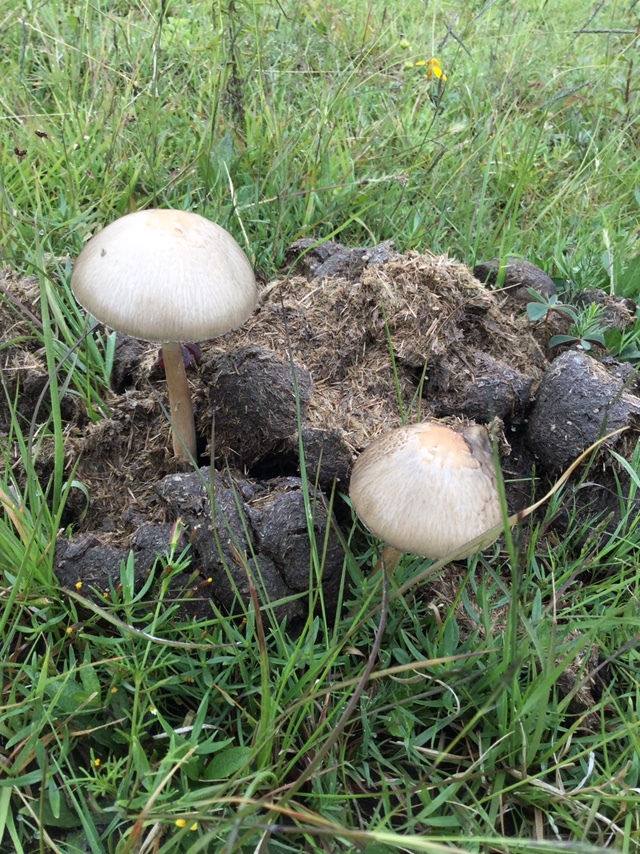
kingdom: Fungi
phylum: Basidiomycota
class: Agaricomycetes
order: Agaricales
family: Bolbitiaceae
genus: Panaeolus
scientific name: Panaeolus antillarum
